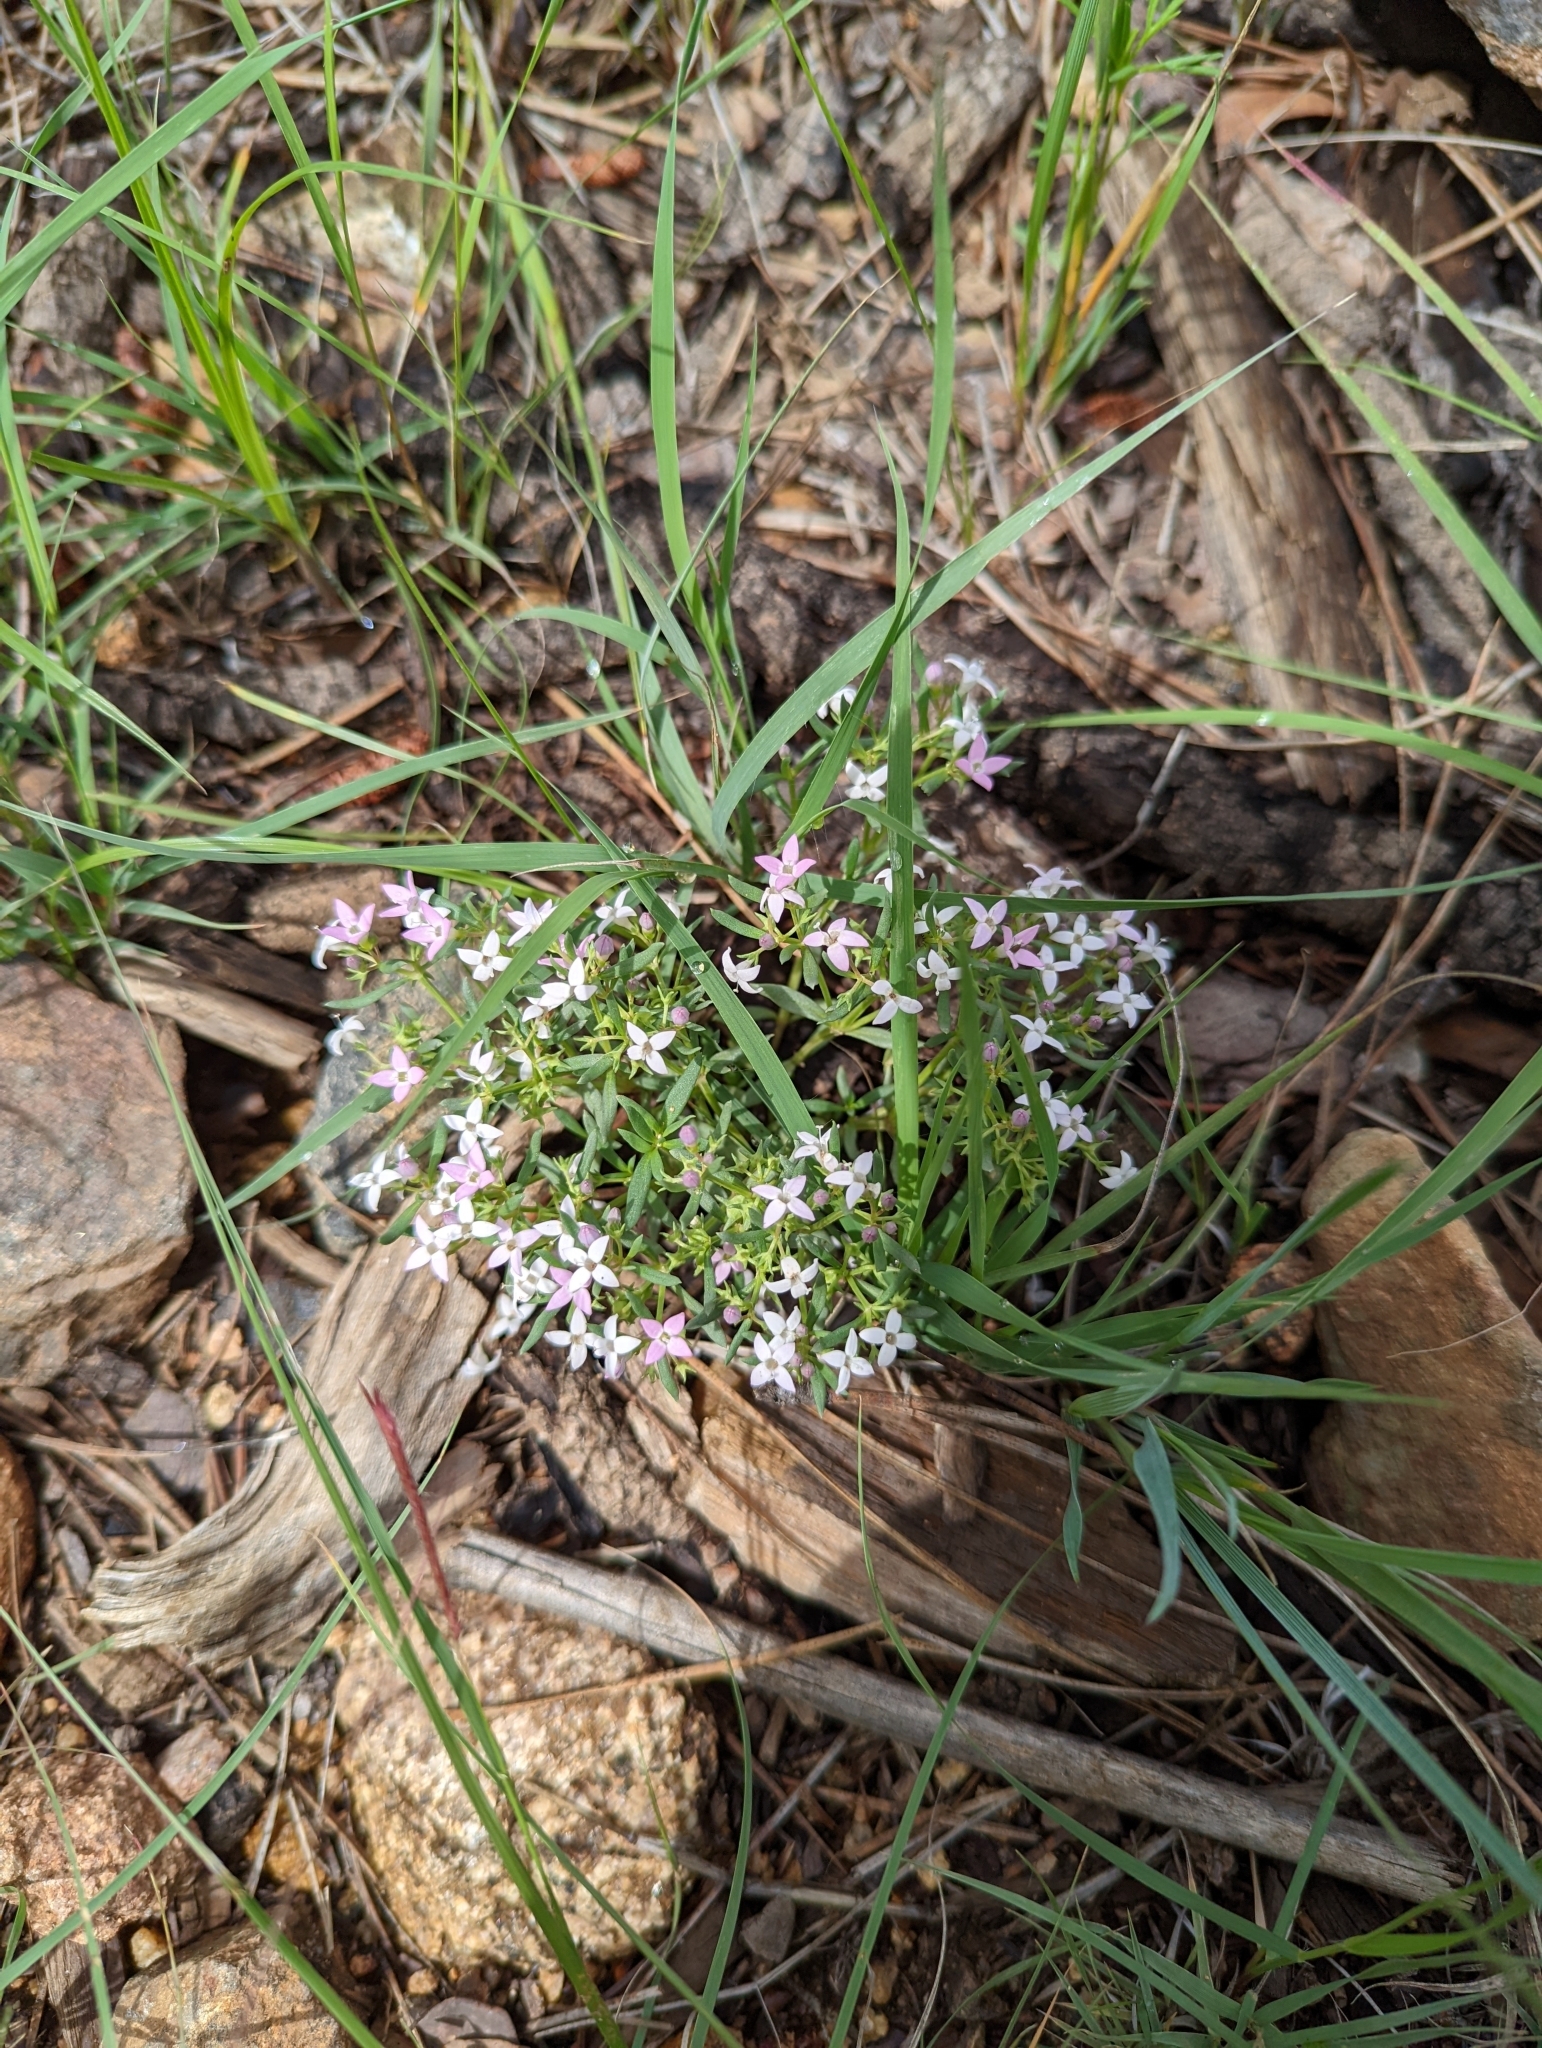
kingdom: Plantae
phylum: Tracheophyta
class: Magnoliopsida
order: Gentianales
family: Rubiaceae
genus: Houstonia
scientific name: Houstonia wrightii
